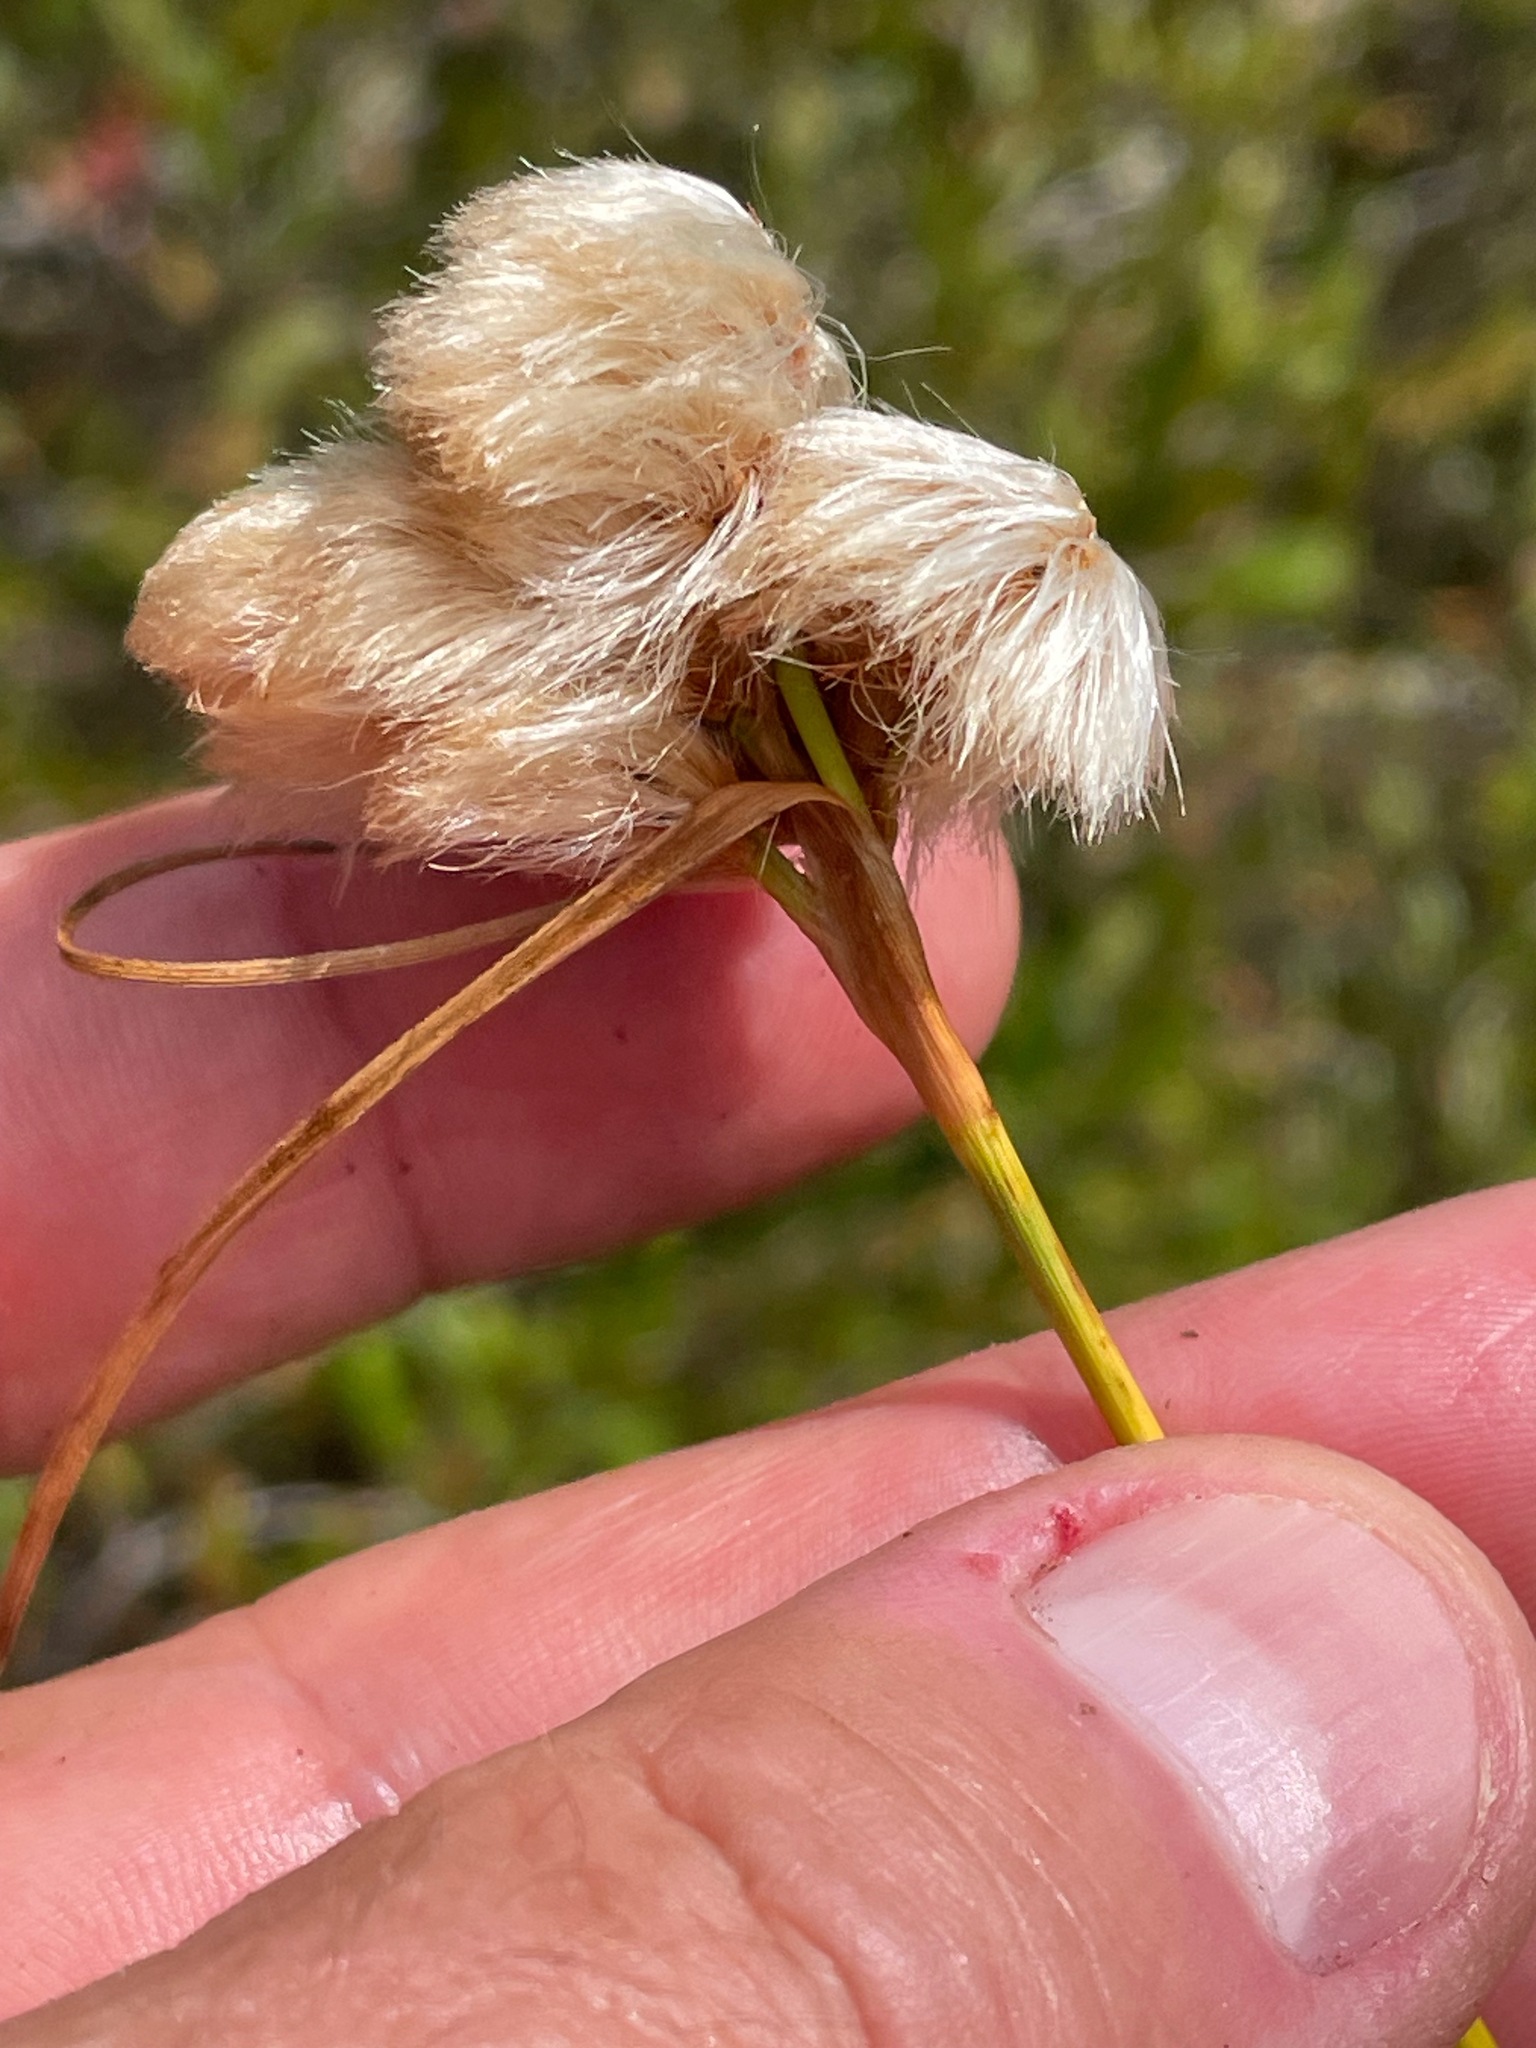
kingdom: Plantae
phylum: Tracheophyta
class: Liliopsida
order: Poales
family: Cyperaceae
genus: Eriophorum
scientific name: Eriophorum virginicum
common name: Tawny cottongrass
